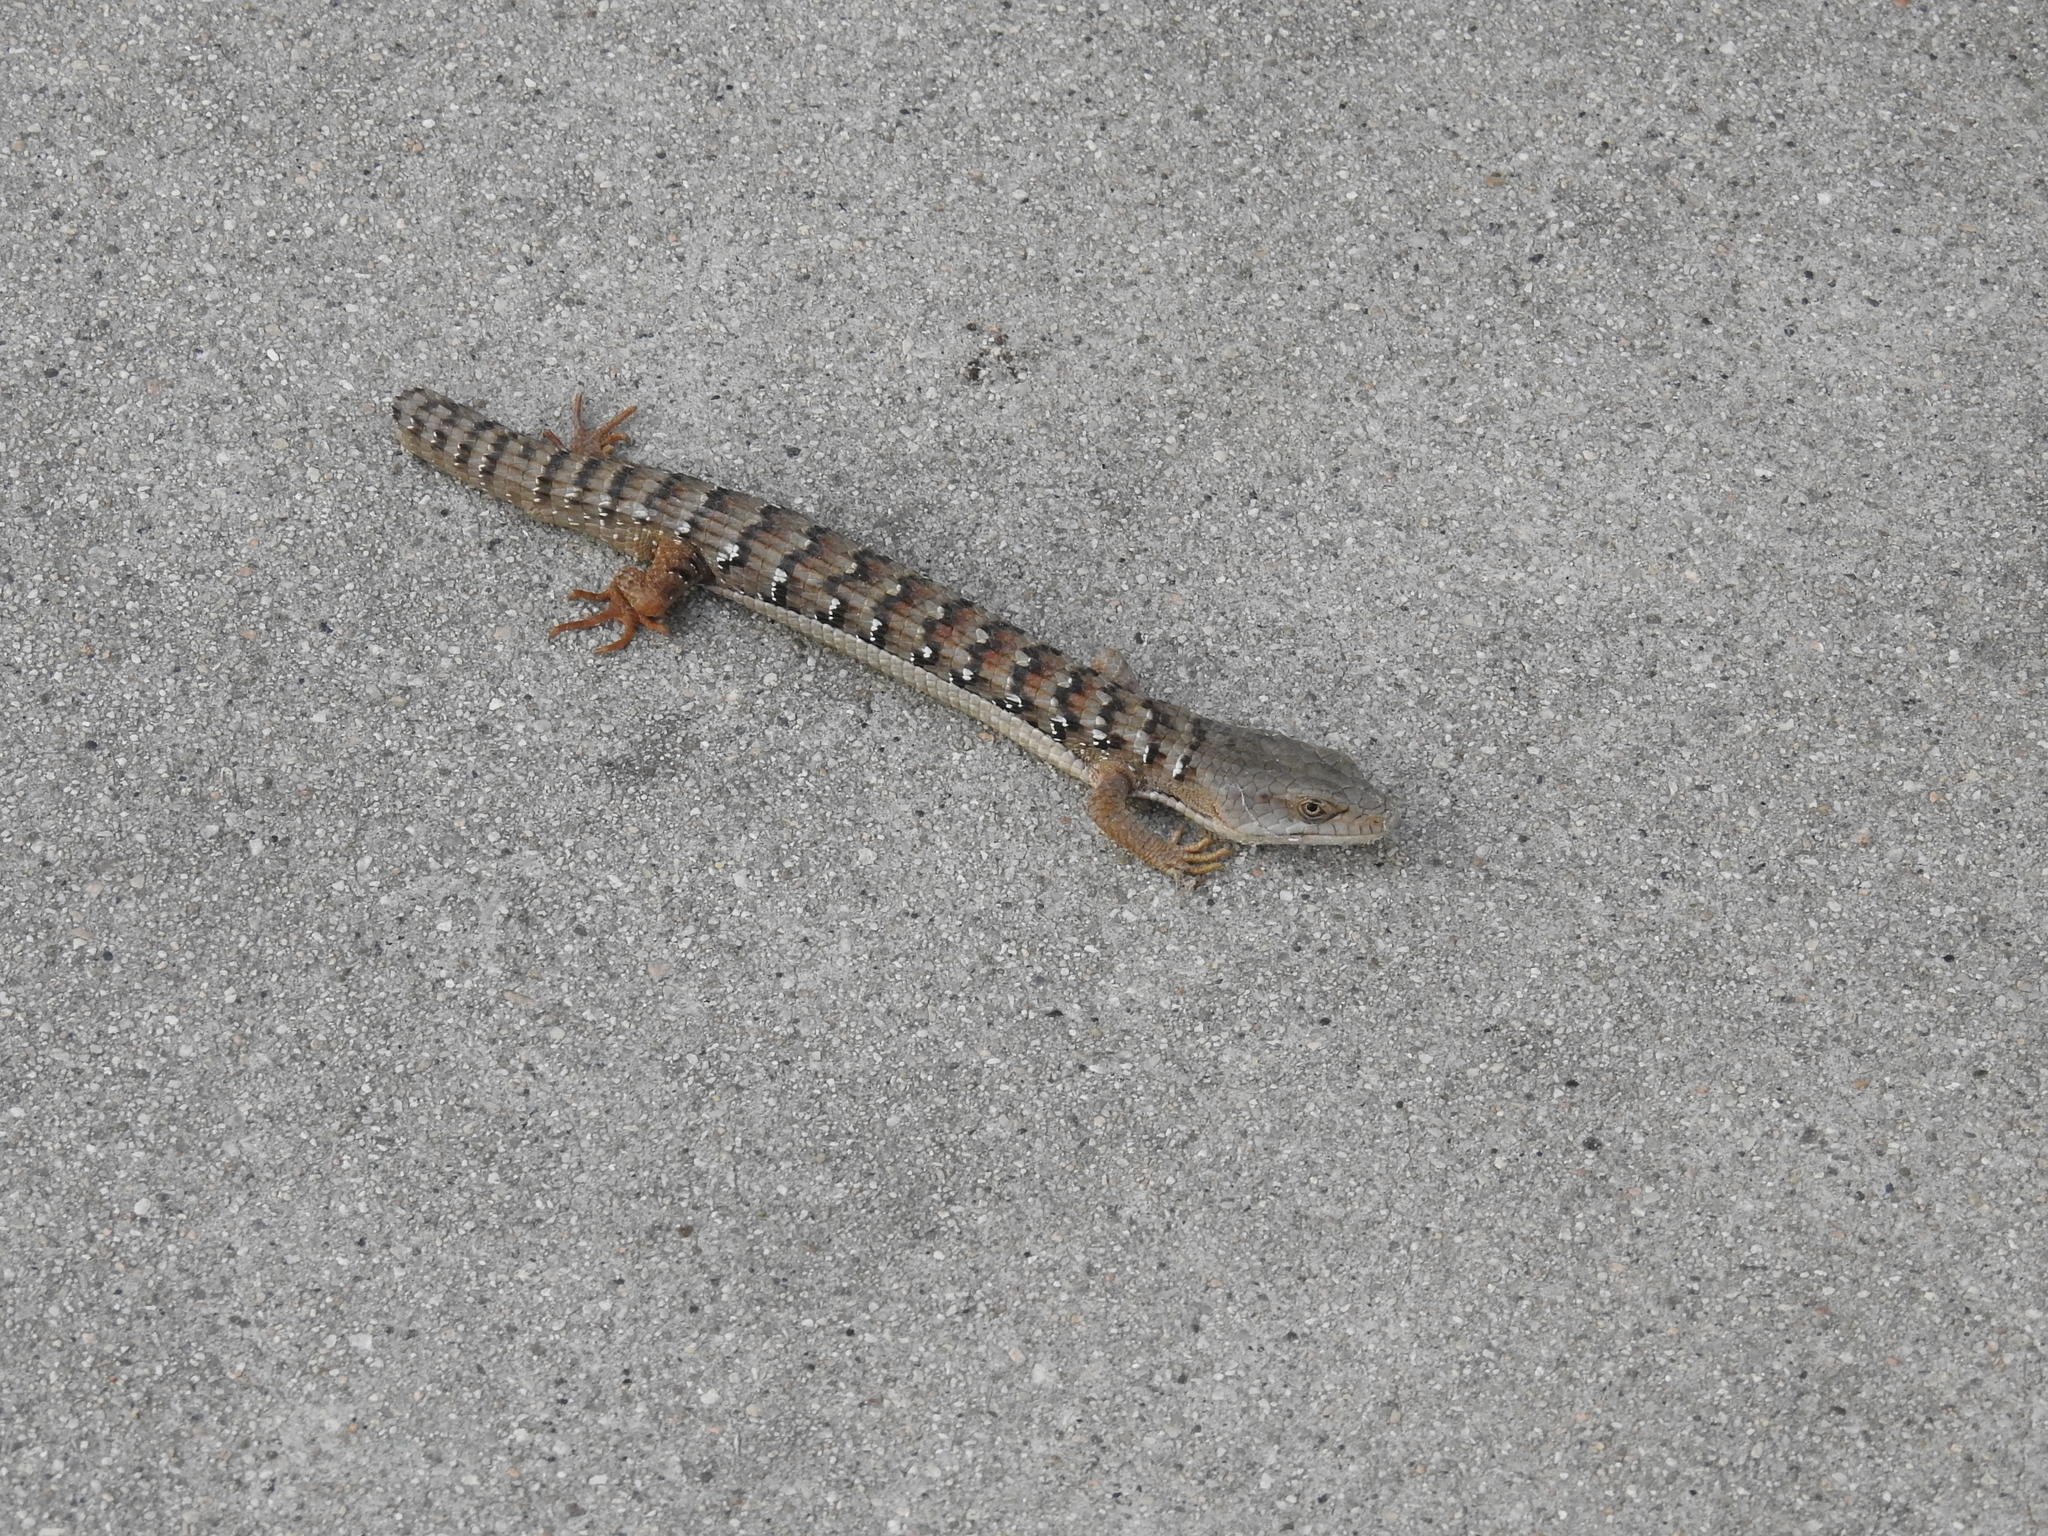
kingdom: Animalia
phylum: Chordata
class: Squamata
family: Anguidae
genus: Elgaria
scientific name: Elgaria multicarinata
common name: Southern alligator lizard
